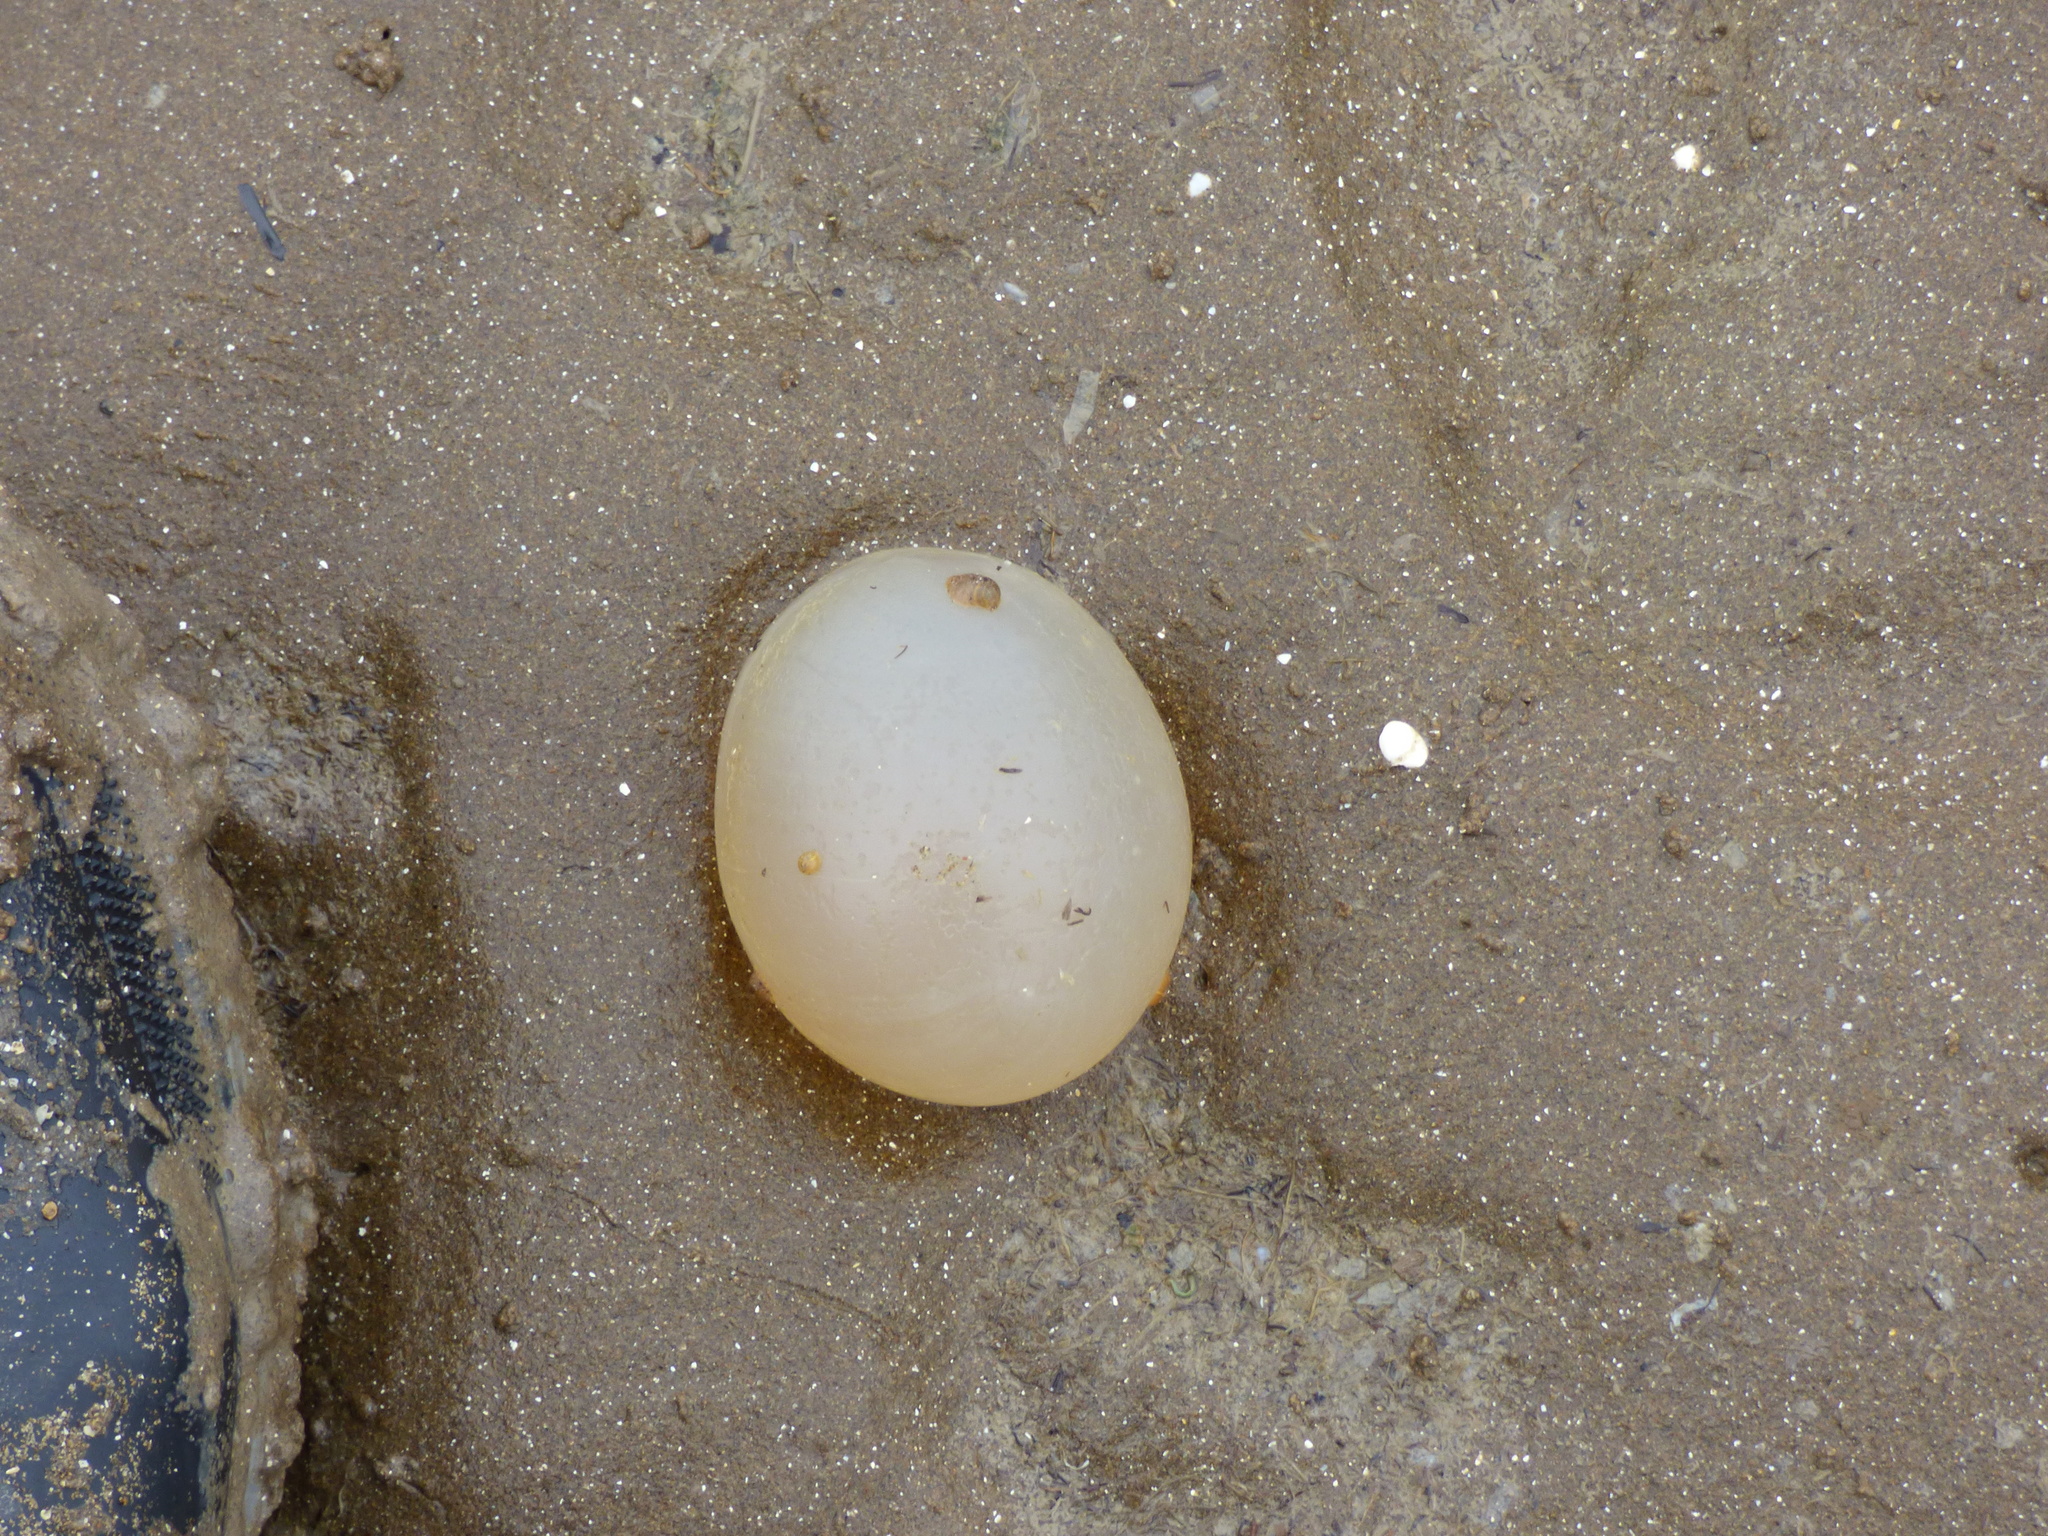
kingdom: Animalia
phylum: Mollusca
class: Gastropoda
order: Neogastropoda
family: Volutidae
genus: Pachycymbiola
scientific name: Pachycymbiola brasiliana
